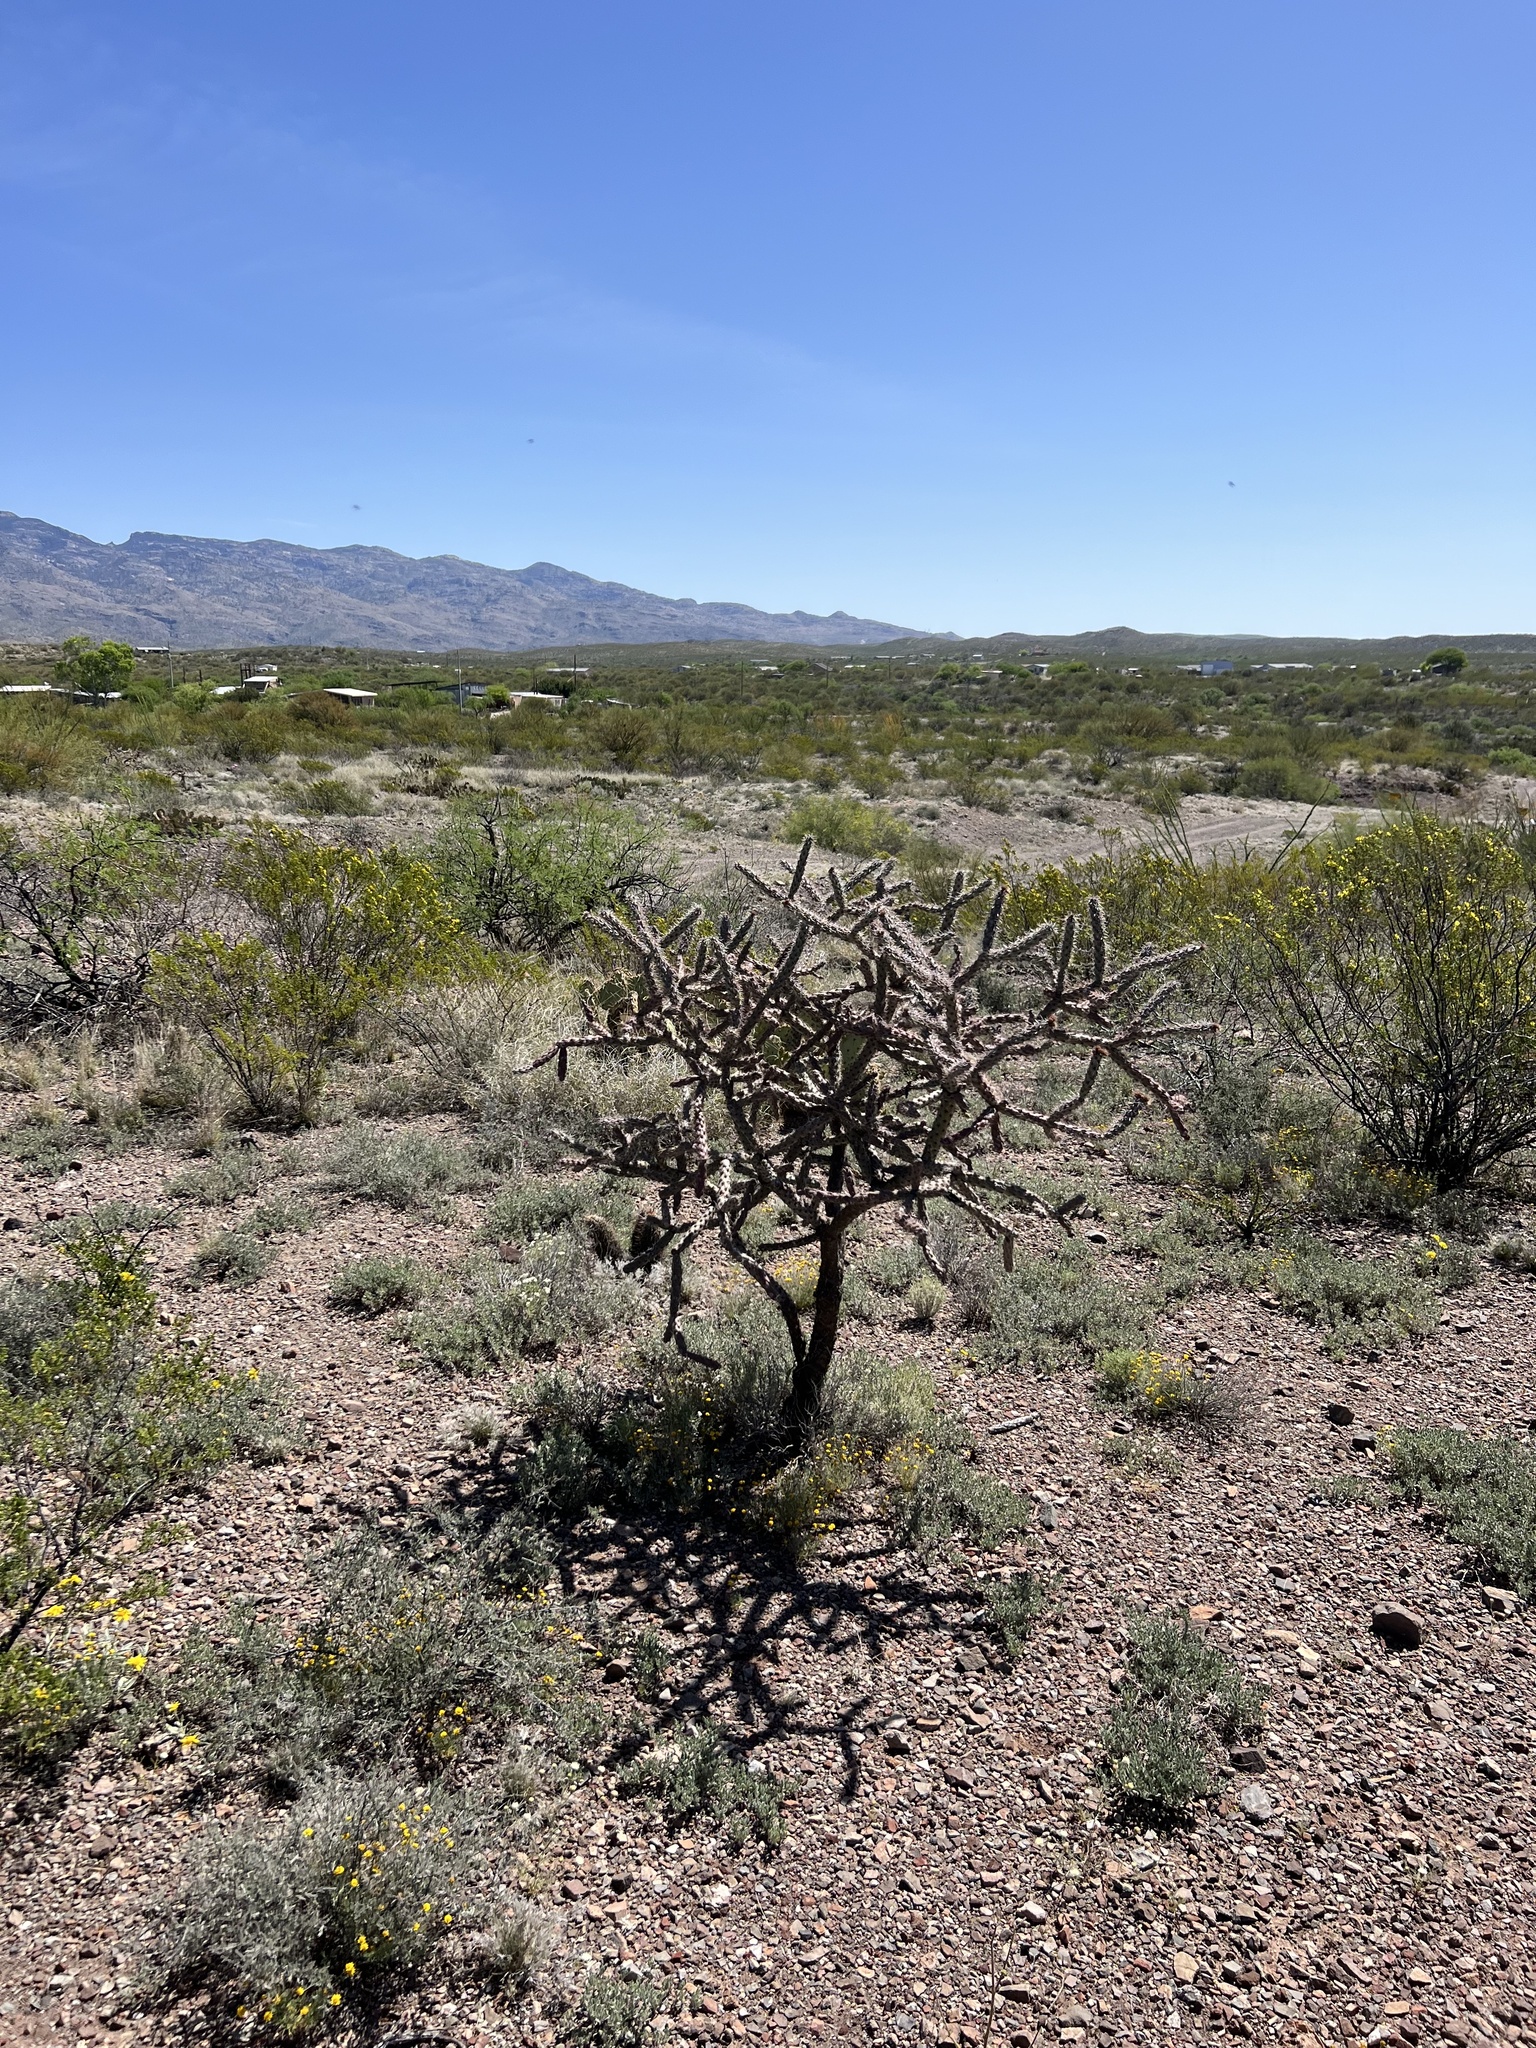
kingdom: Plantae
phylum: Tracheophyta
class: Magnoliopsida
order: Caryophyllales
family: Cactaceae
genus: Cylindropuntia
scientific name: Cylindropuntia imbricata
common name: Candelabrum cactus
